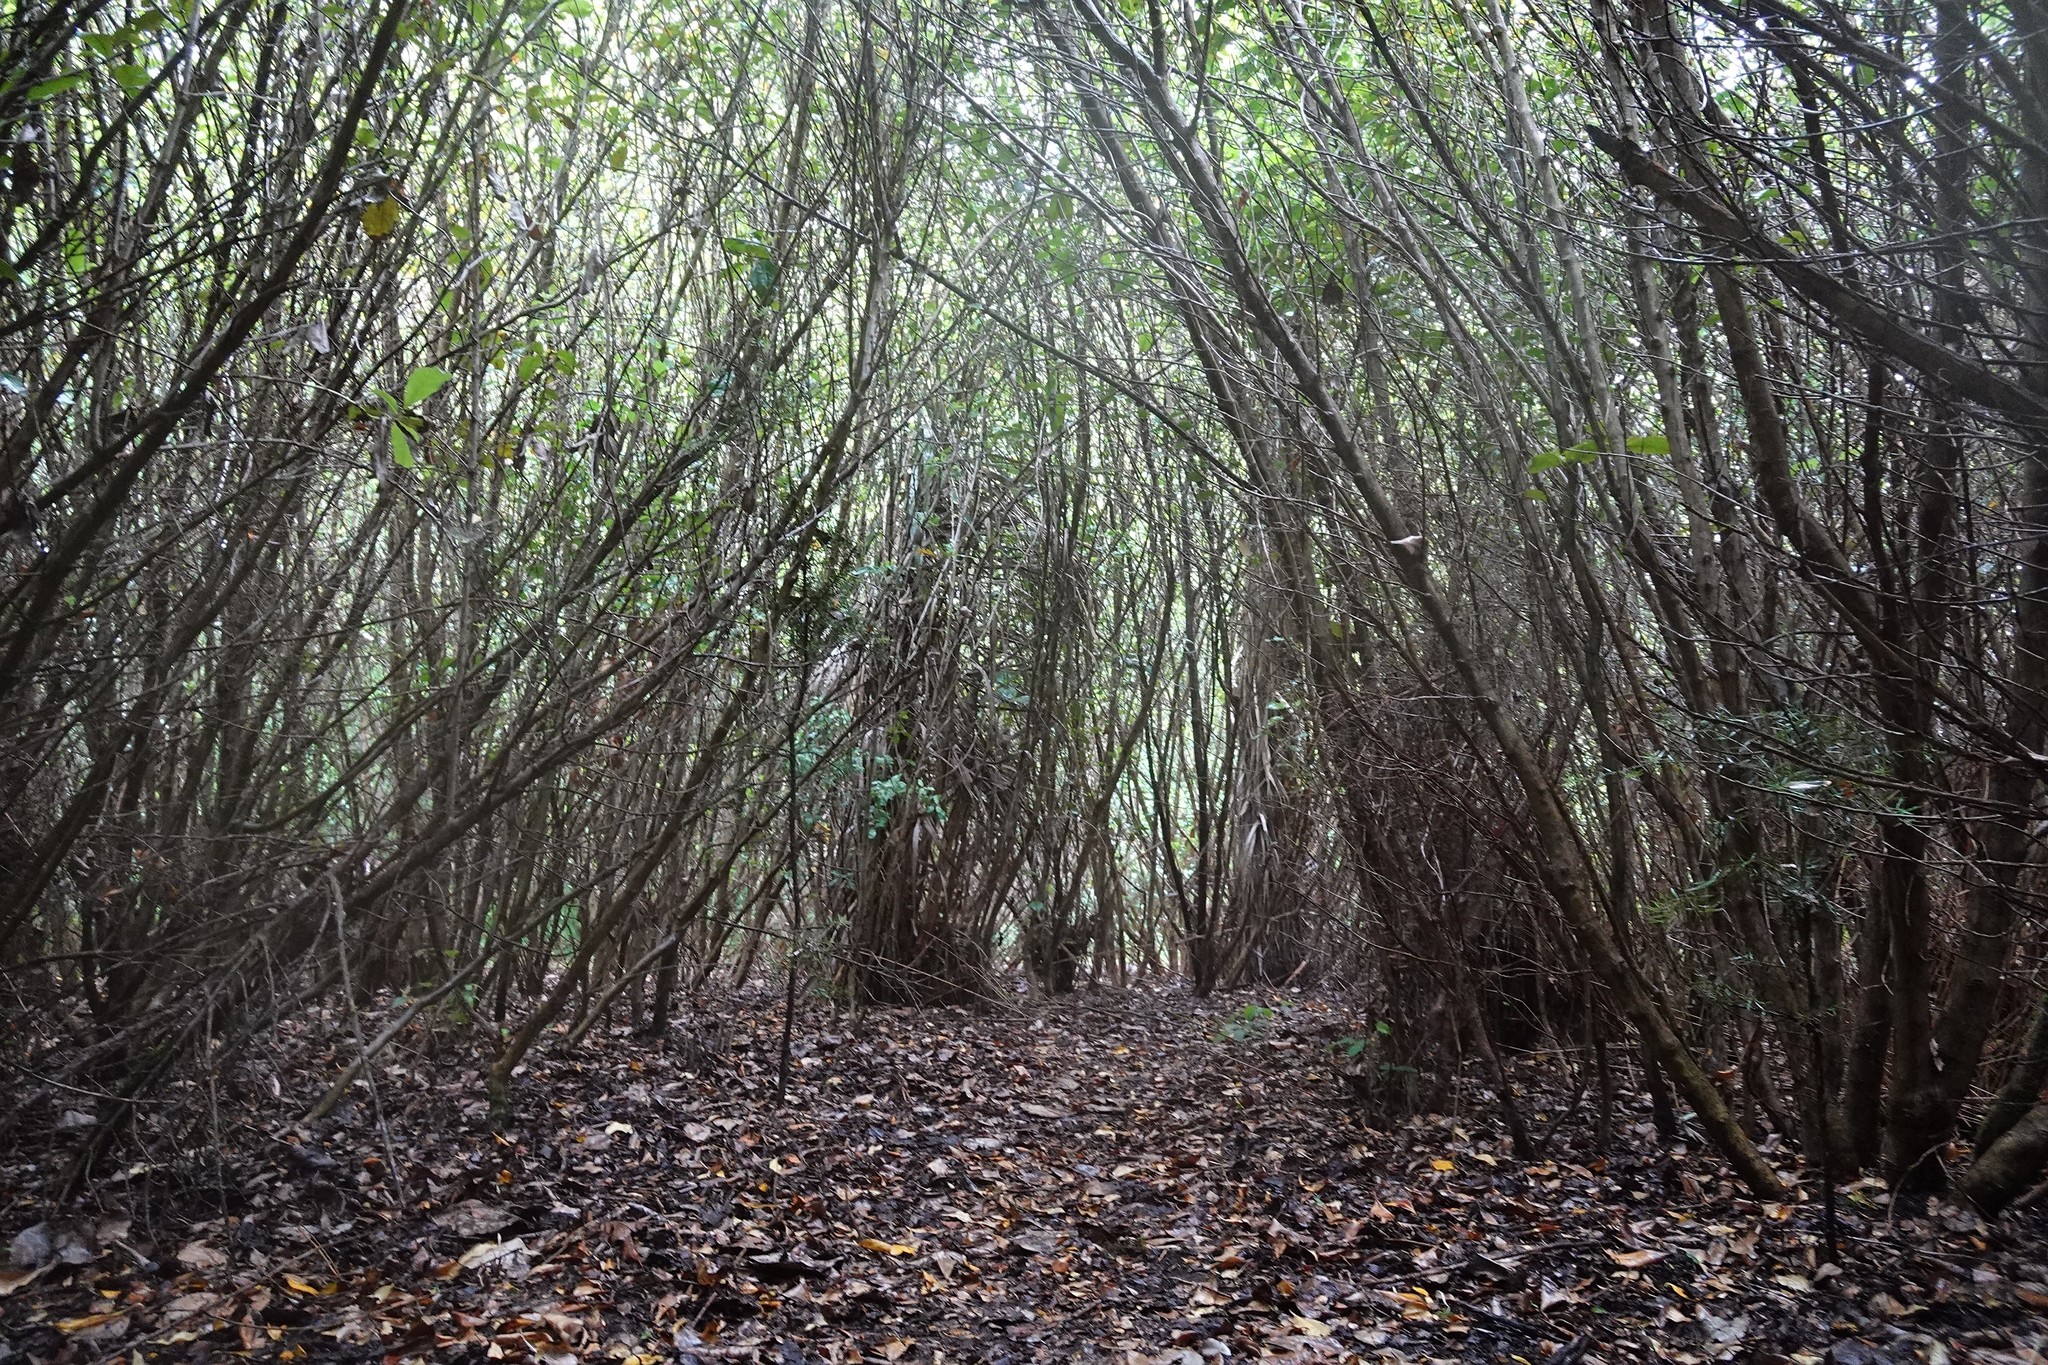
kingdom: Plantae
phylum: Tracheophyta
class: Magnoliopsida
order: Gentianales
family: Rubiaceae
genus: Coprosma
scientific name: Coprosma robusta
